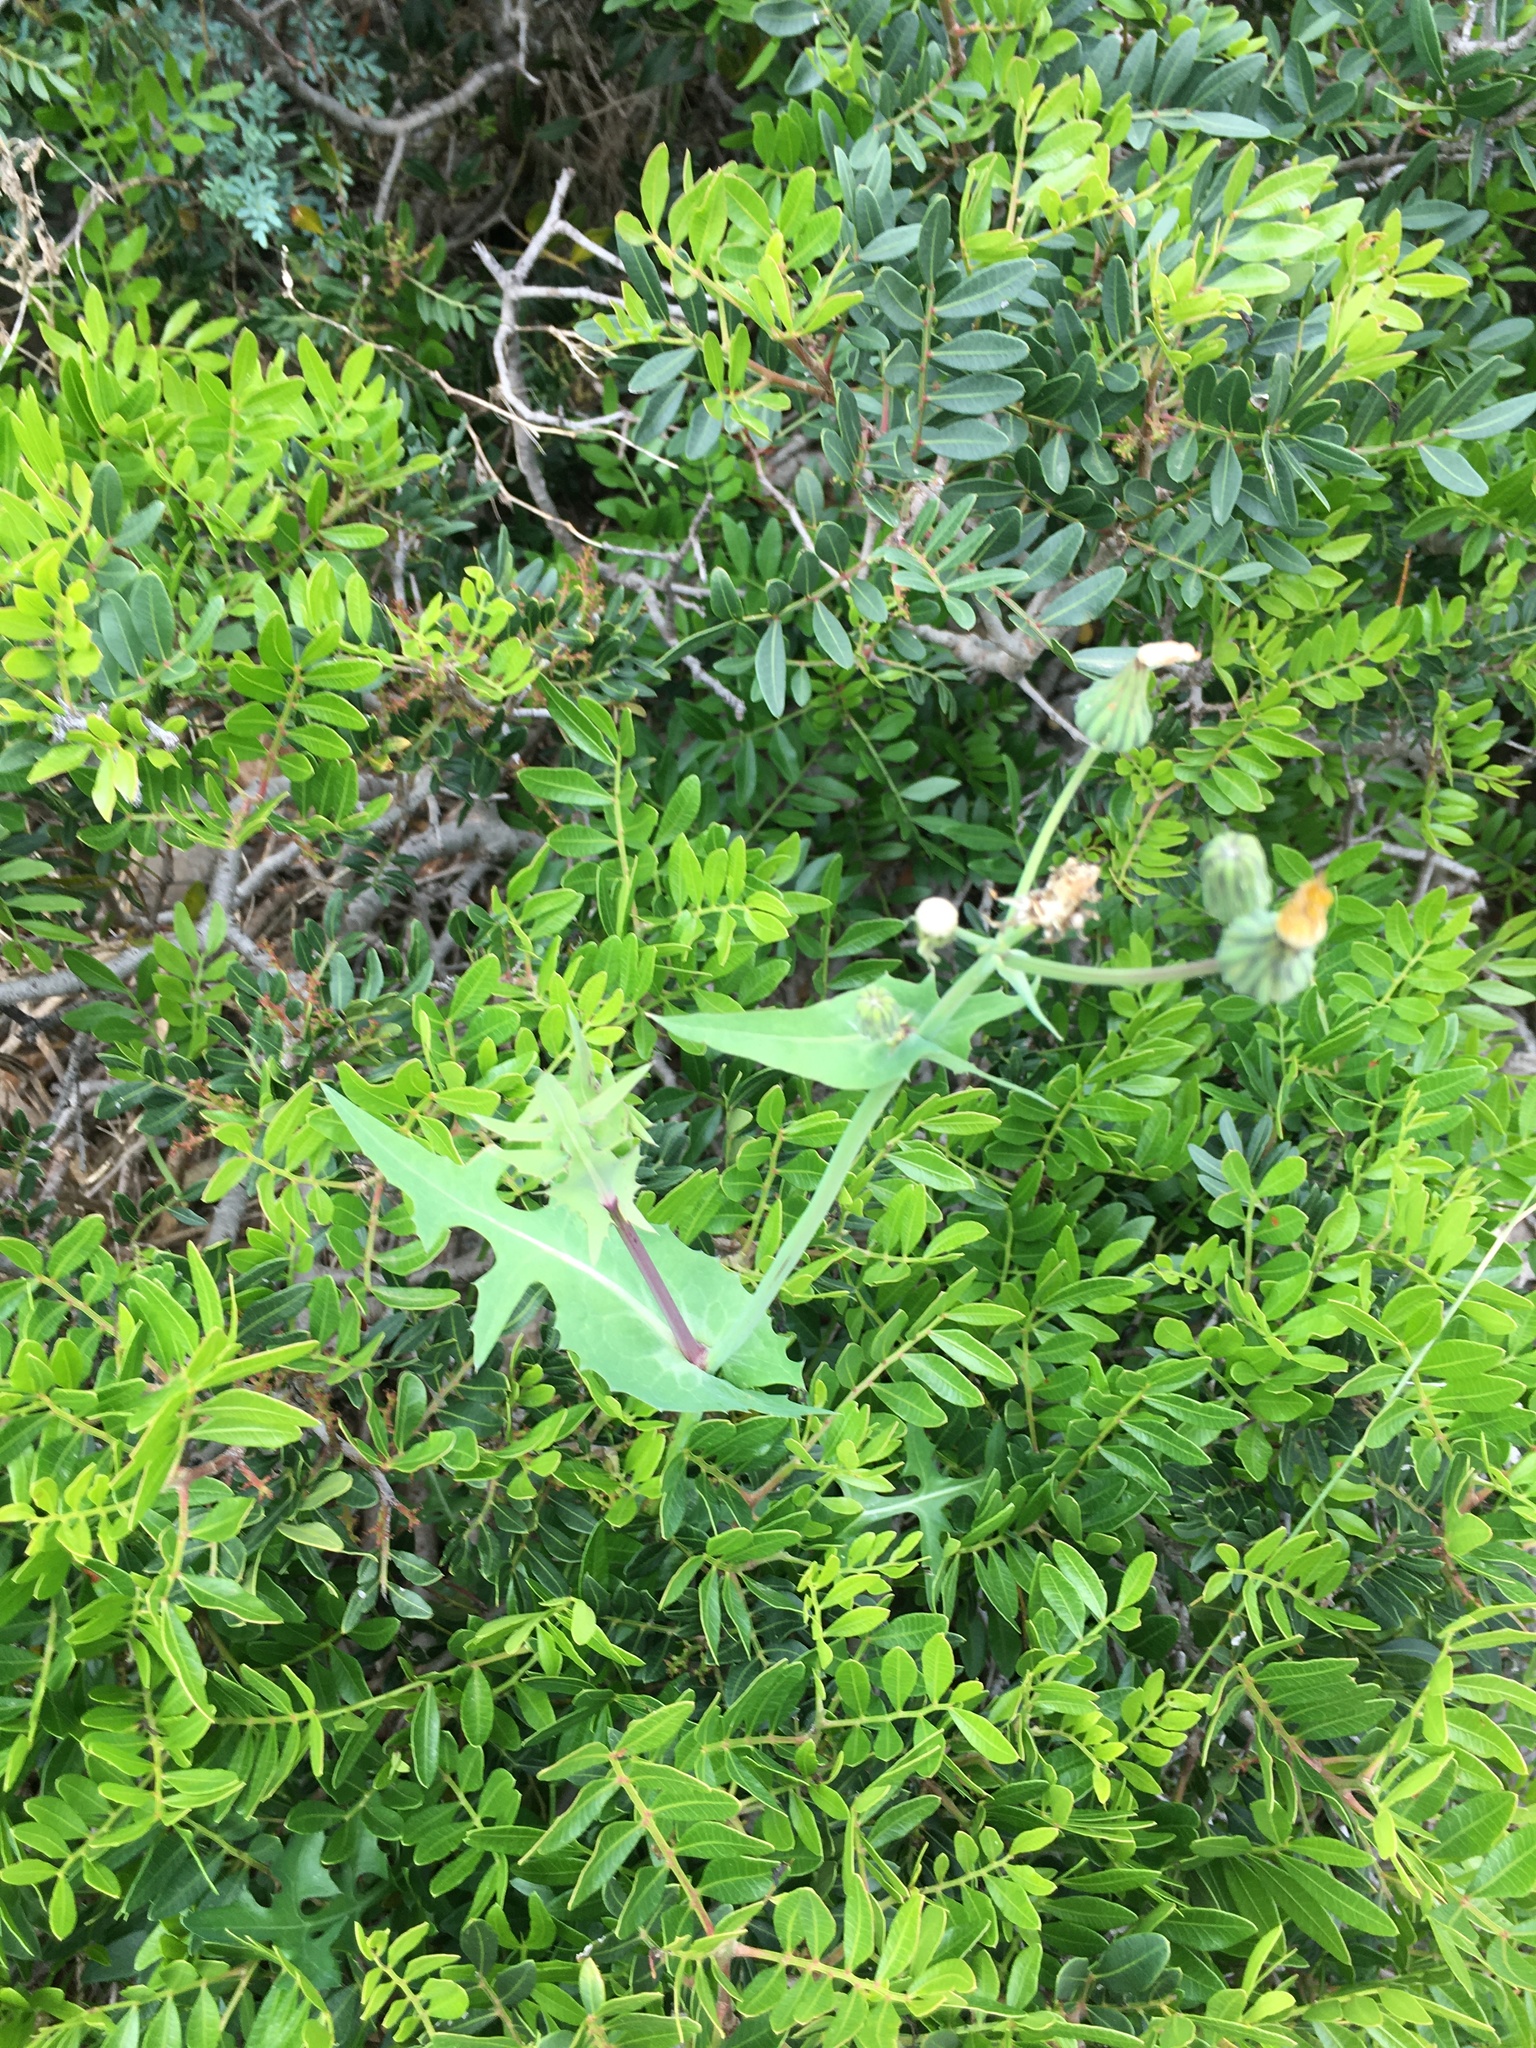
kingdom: Plantae
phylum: Tracheophyta
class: Magnoliopsida
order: Asterales
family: Asteraceae
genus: Sonchus
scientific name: Sonchus oleraceus
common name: Common sowthistle
